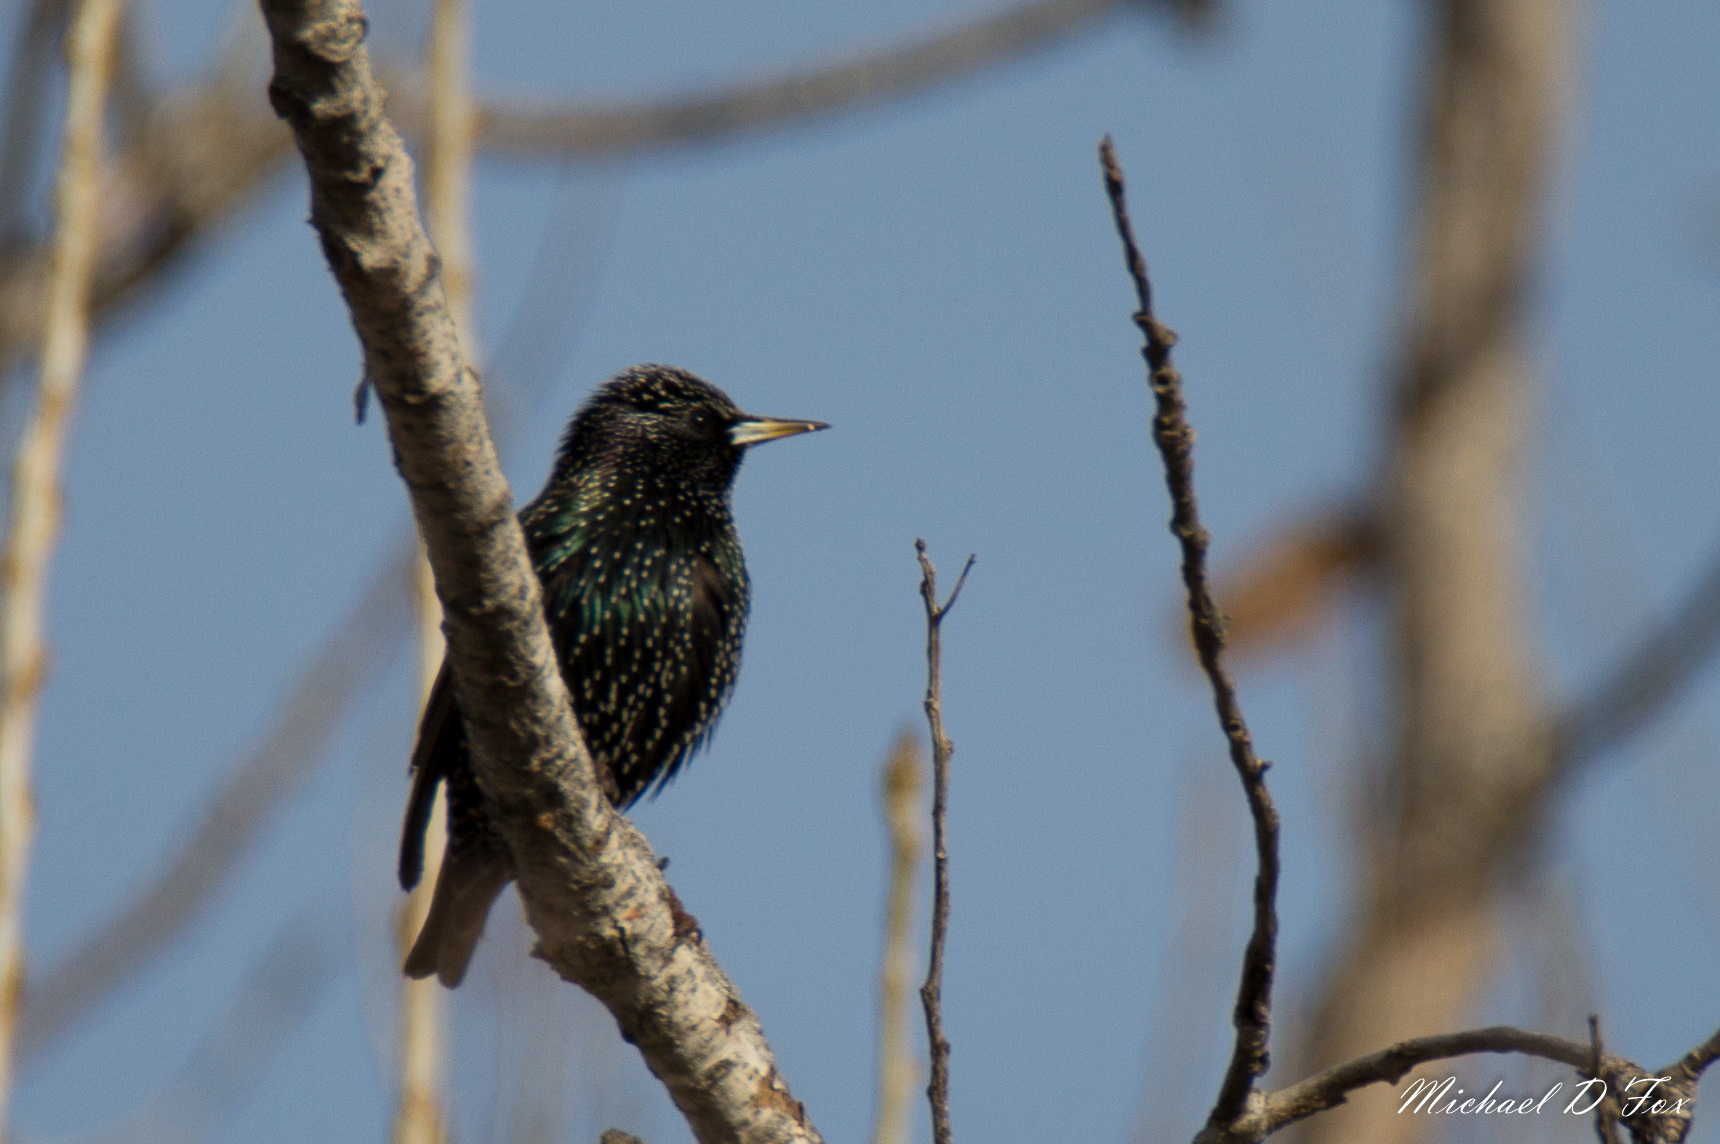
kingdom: Animalia
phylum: Chordata
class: Aves
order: Passeriformes
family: Sturnidae
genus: Sturnus
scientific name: Sturnus vulgaris
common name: Common starling
